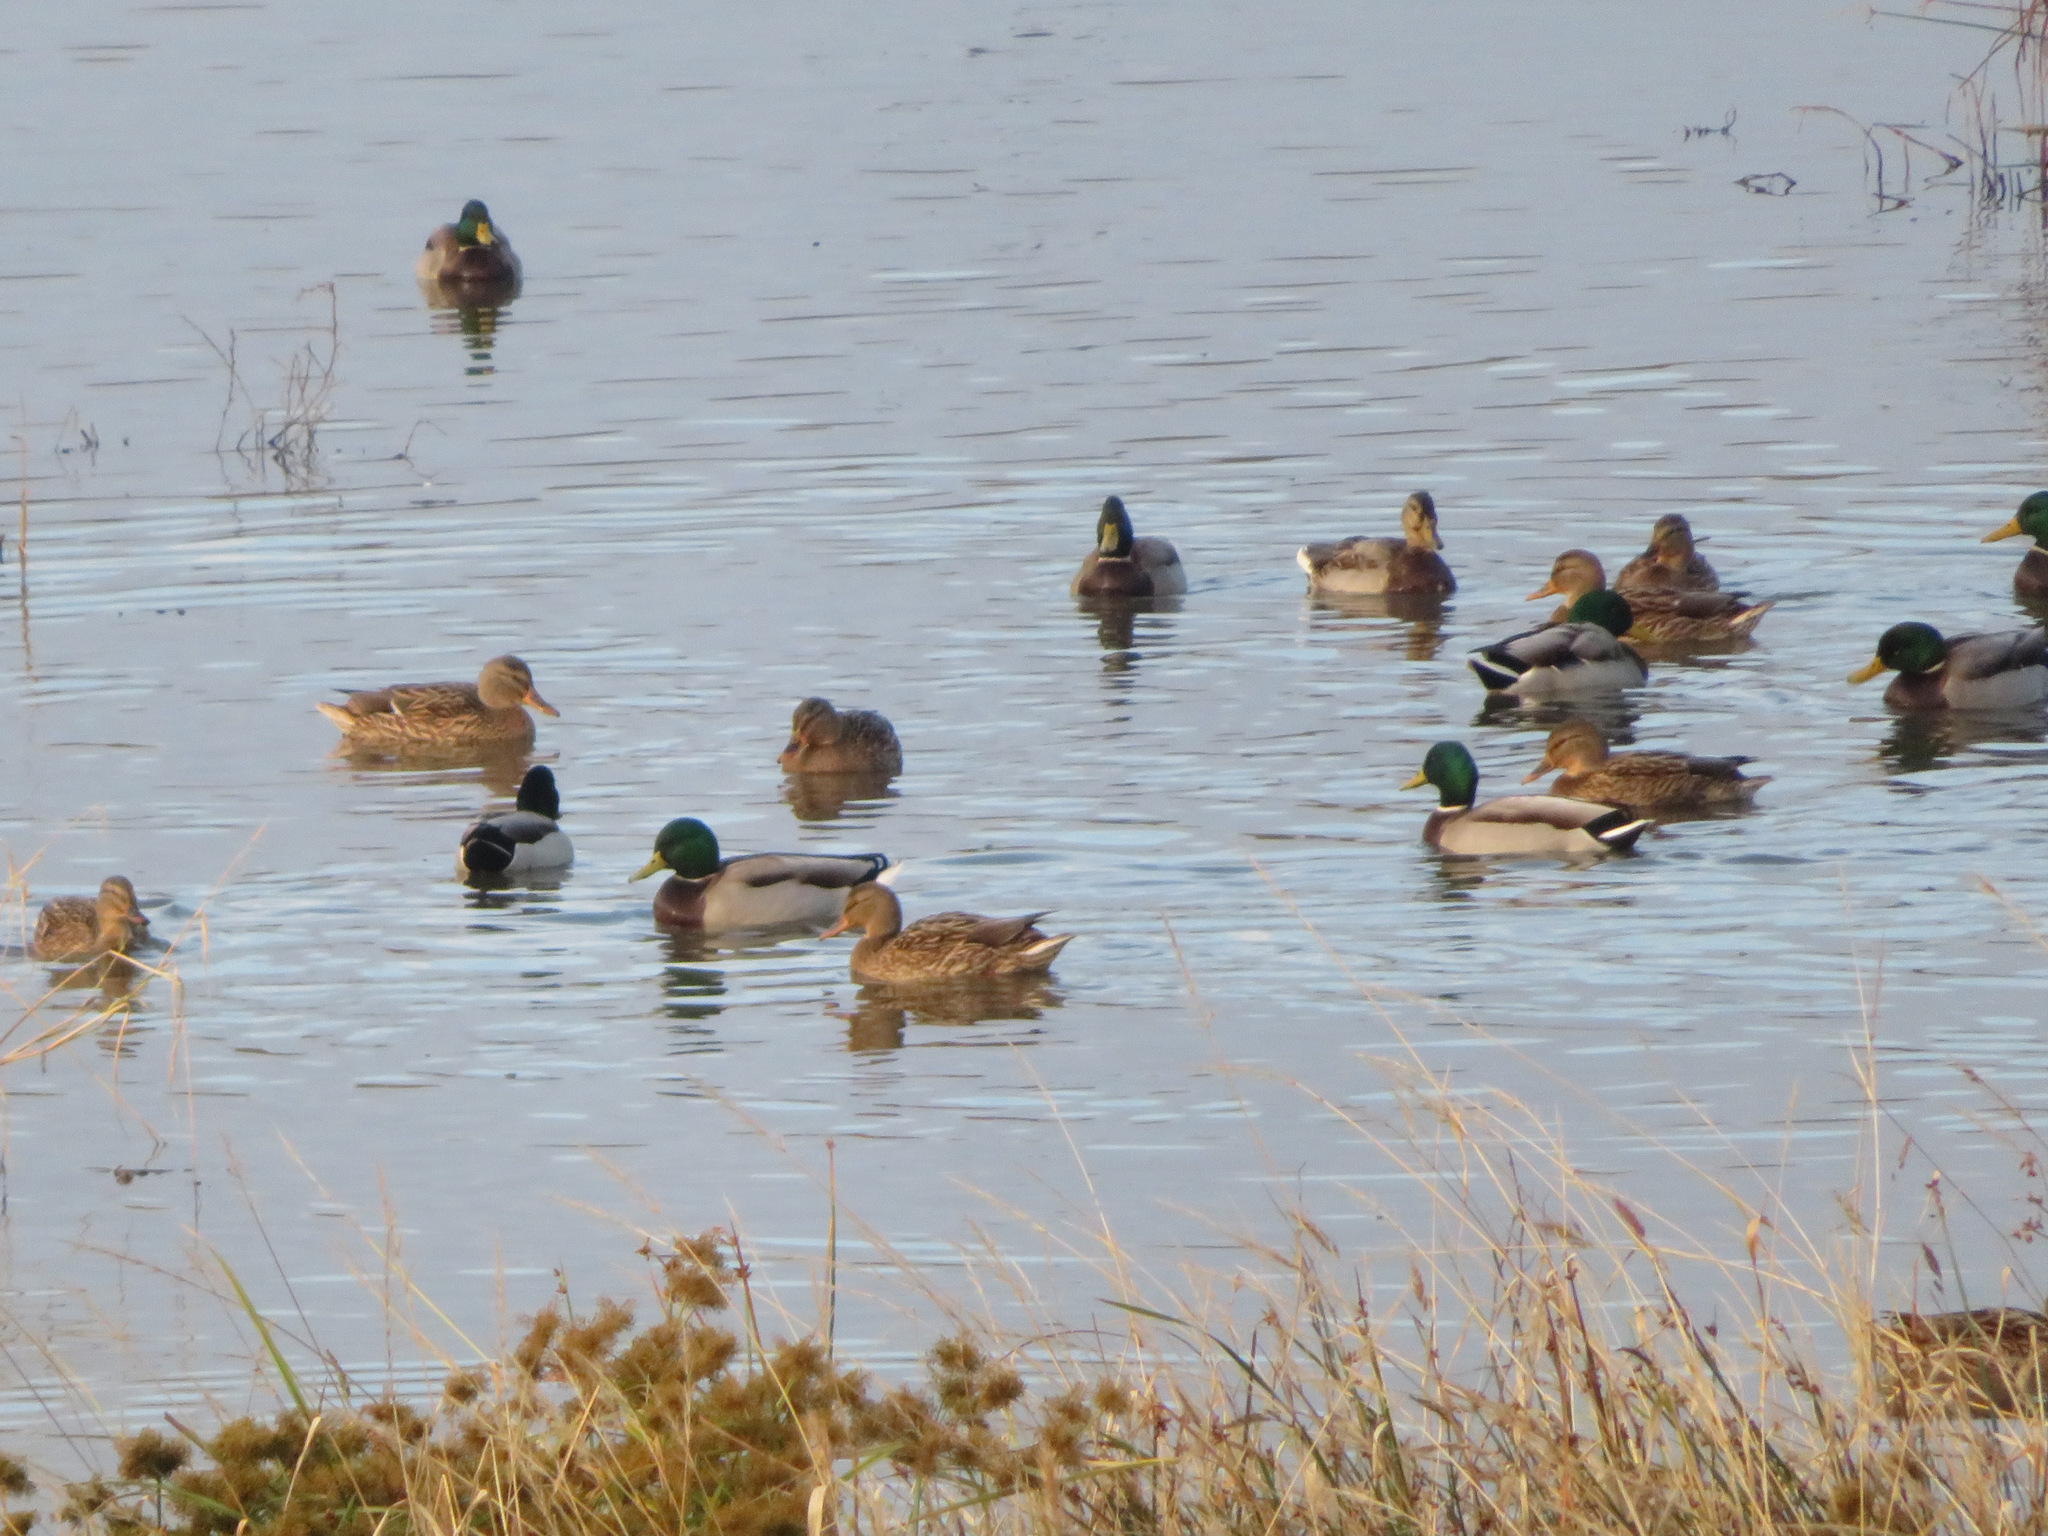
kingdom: Animalia
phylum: Chordata
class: Aves
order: Anseriformes
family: Anatidae
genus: Anas
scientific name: Anas platyrhynchos
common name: Mallard
